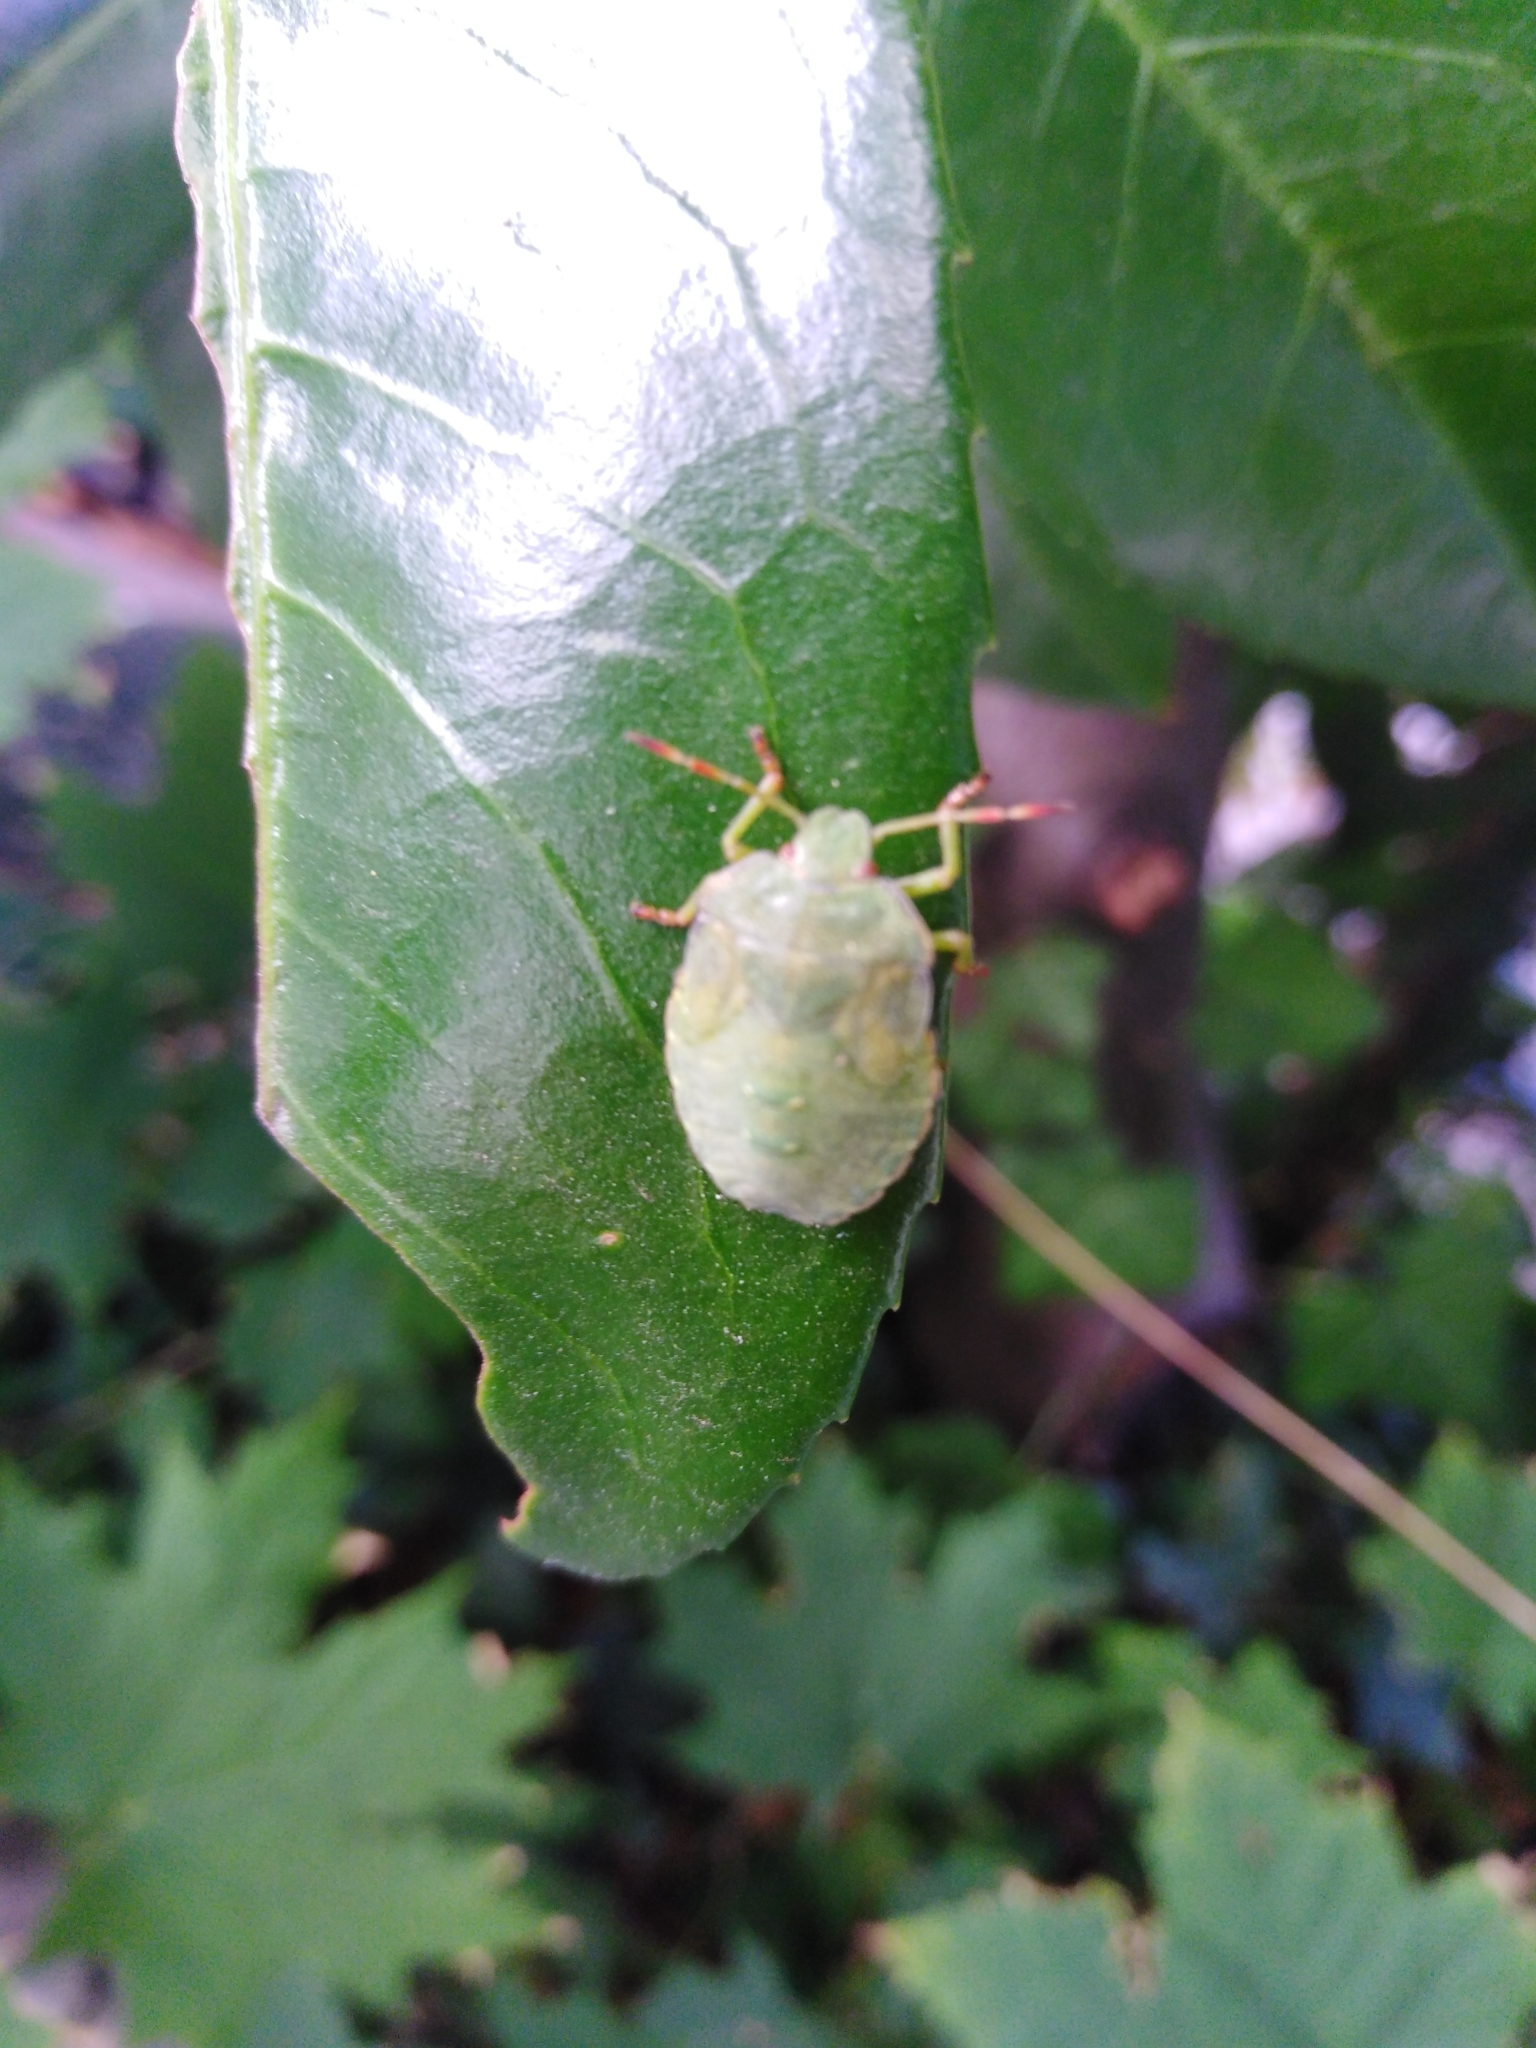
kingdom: Animalia
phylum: Arthropoda
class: Insecta
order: Hemiptera
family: Pentatomidae
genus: Palomena
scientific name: Palomena prasina
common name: Green shieldbug
